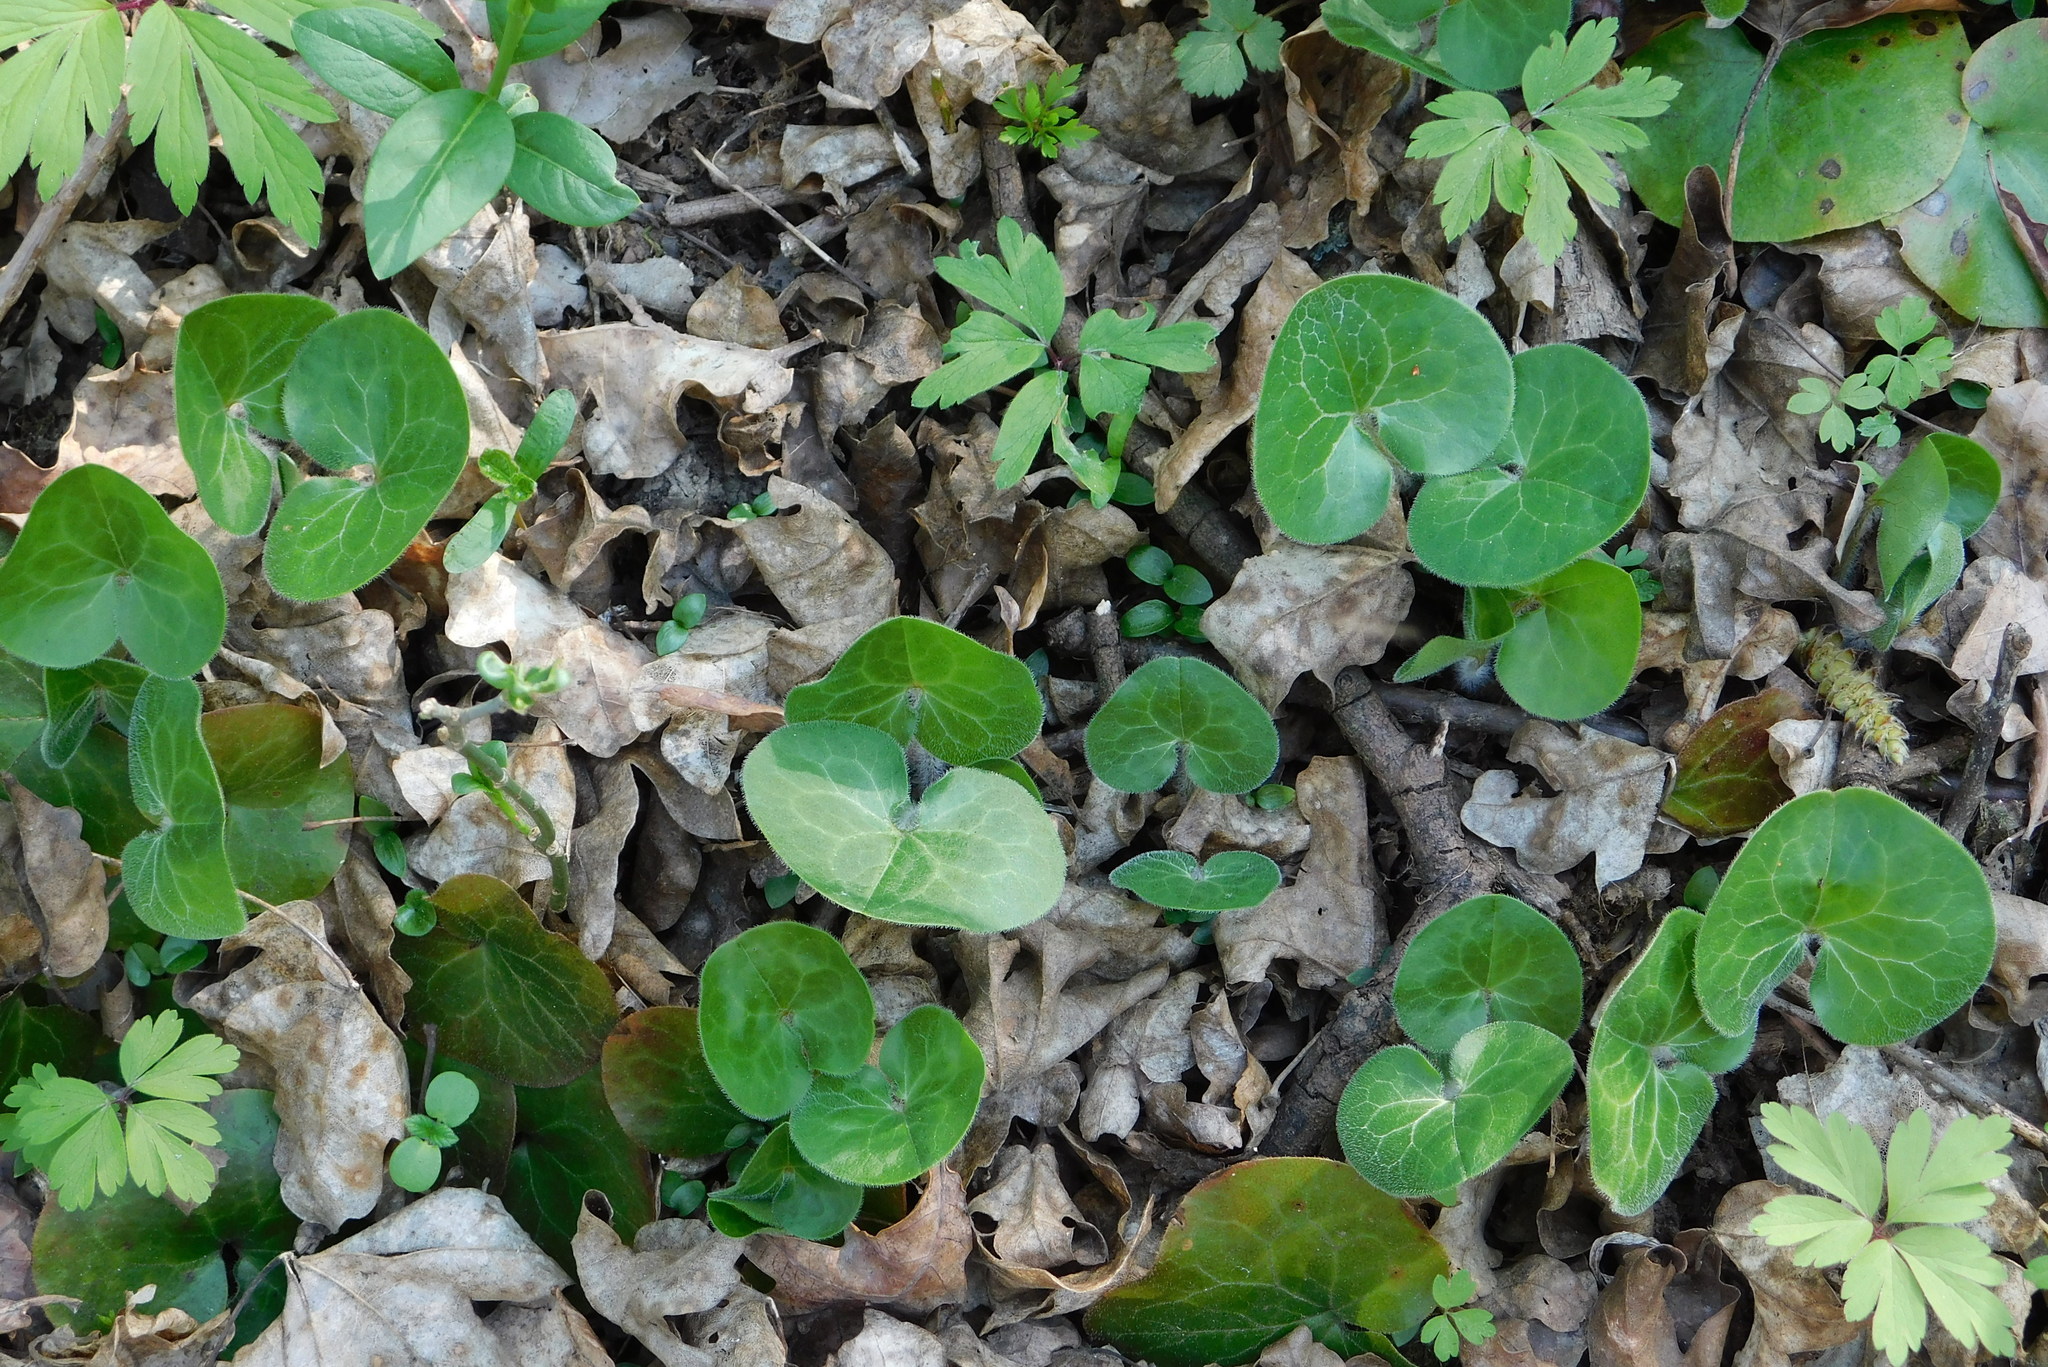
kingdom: Plantae
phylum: Tracheophyta
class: Magnoliopsida
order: Piperales
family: Aristolochiaceae
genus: Asarum
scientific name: Asarum europaeum
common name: Asarabacca
